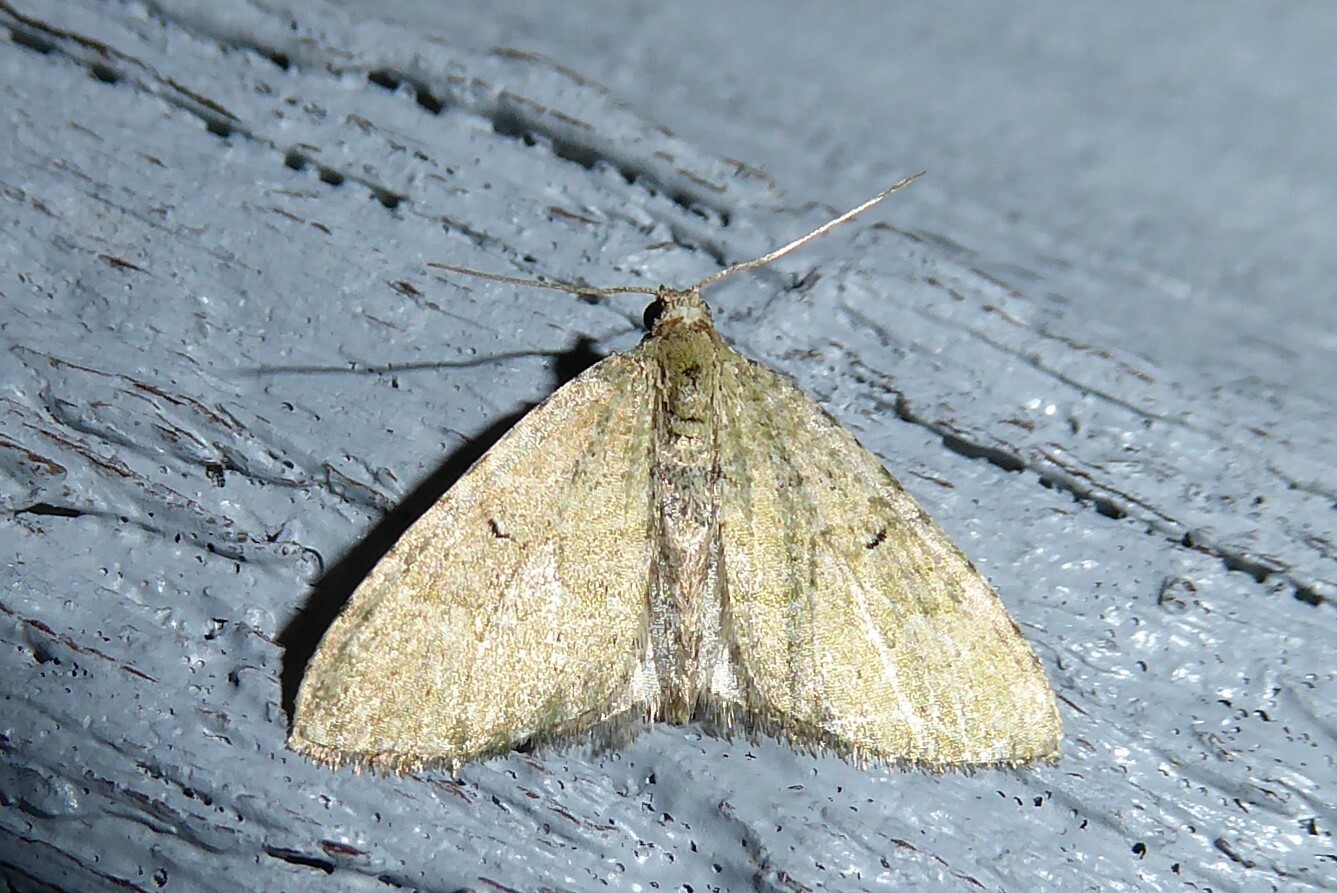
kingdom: Animalia
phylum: Arthropoda
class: Insecta
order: Lepidoptera
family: Geometridae
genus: Epyaxa
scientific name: Epyaxa rosearia
